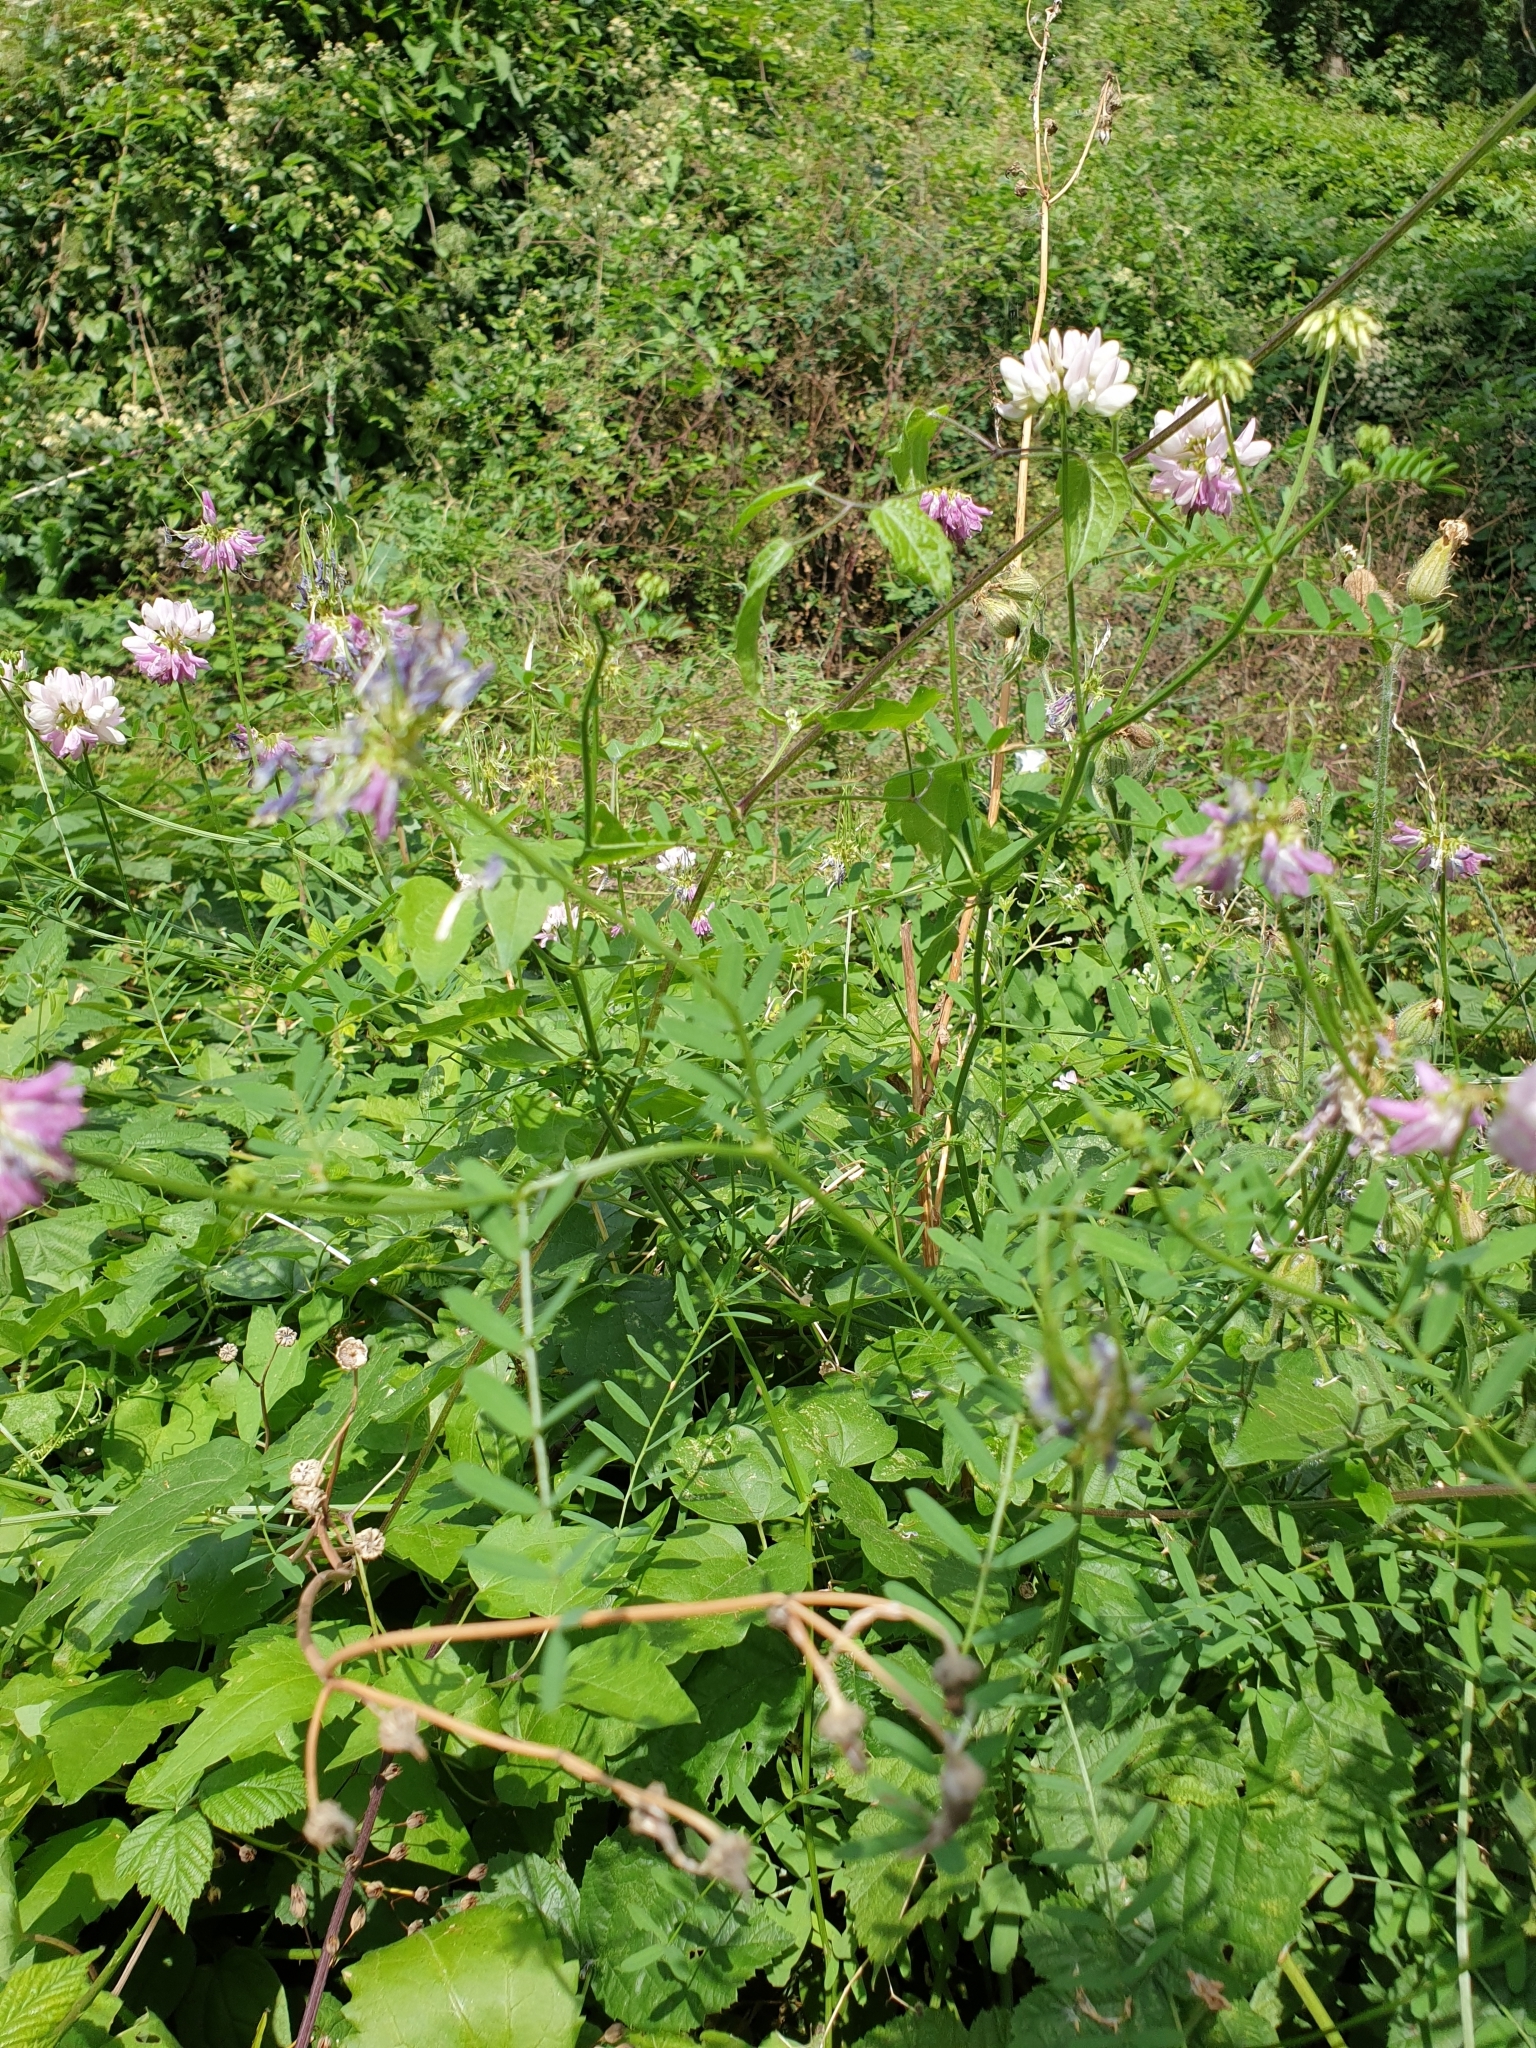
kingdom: Plantae
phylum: Tracheophyta
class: Magnoliopsida
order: Fabales
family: Fabaceae
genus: Coronilla
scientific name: Coronilla varia
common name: Crownvetch
